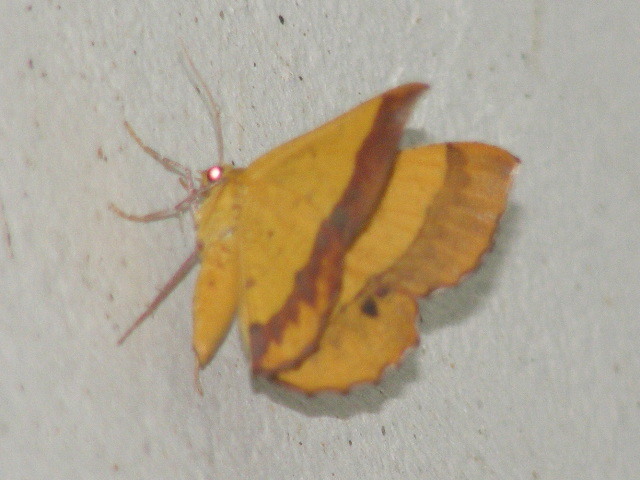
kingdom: Animalia
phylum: Arthropoda
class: Insecta
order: Lepidoptera
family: Geometridae
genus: Hyperythra
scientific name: Hyperythra lutea
